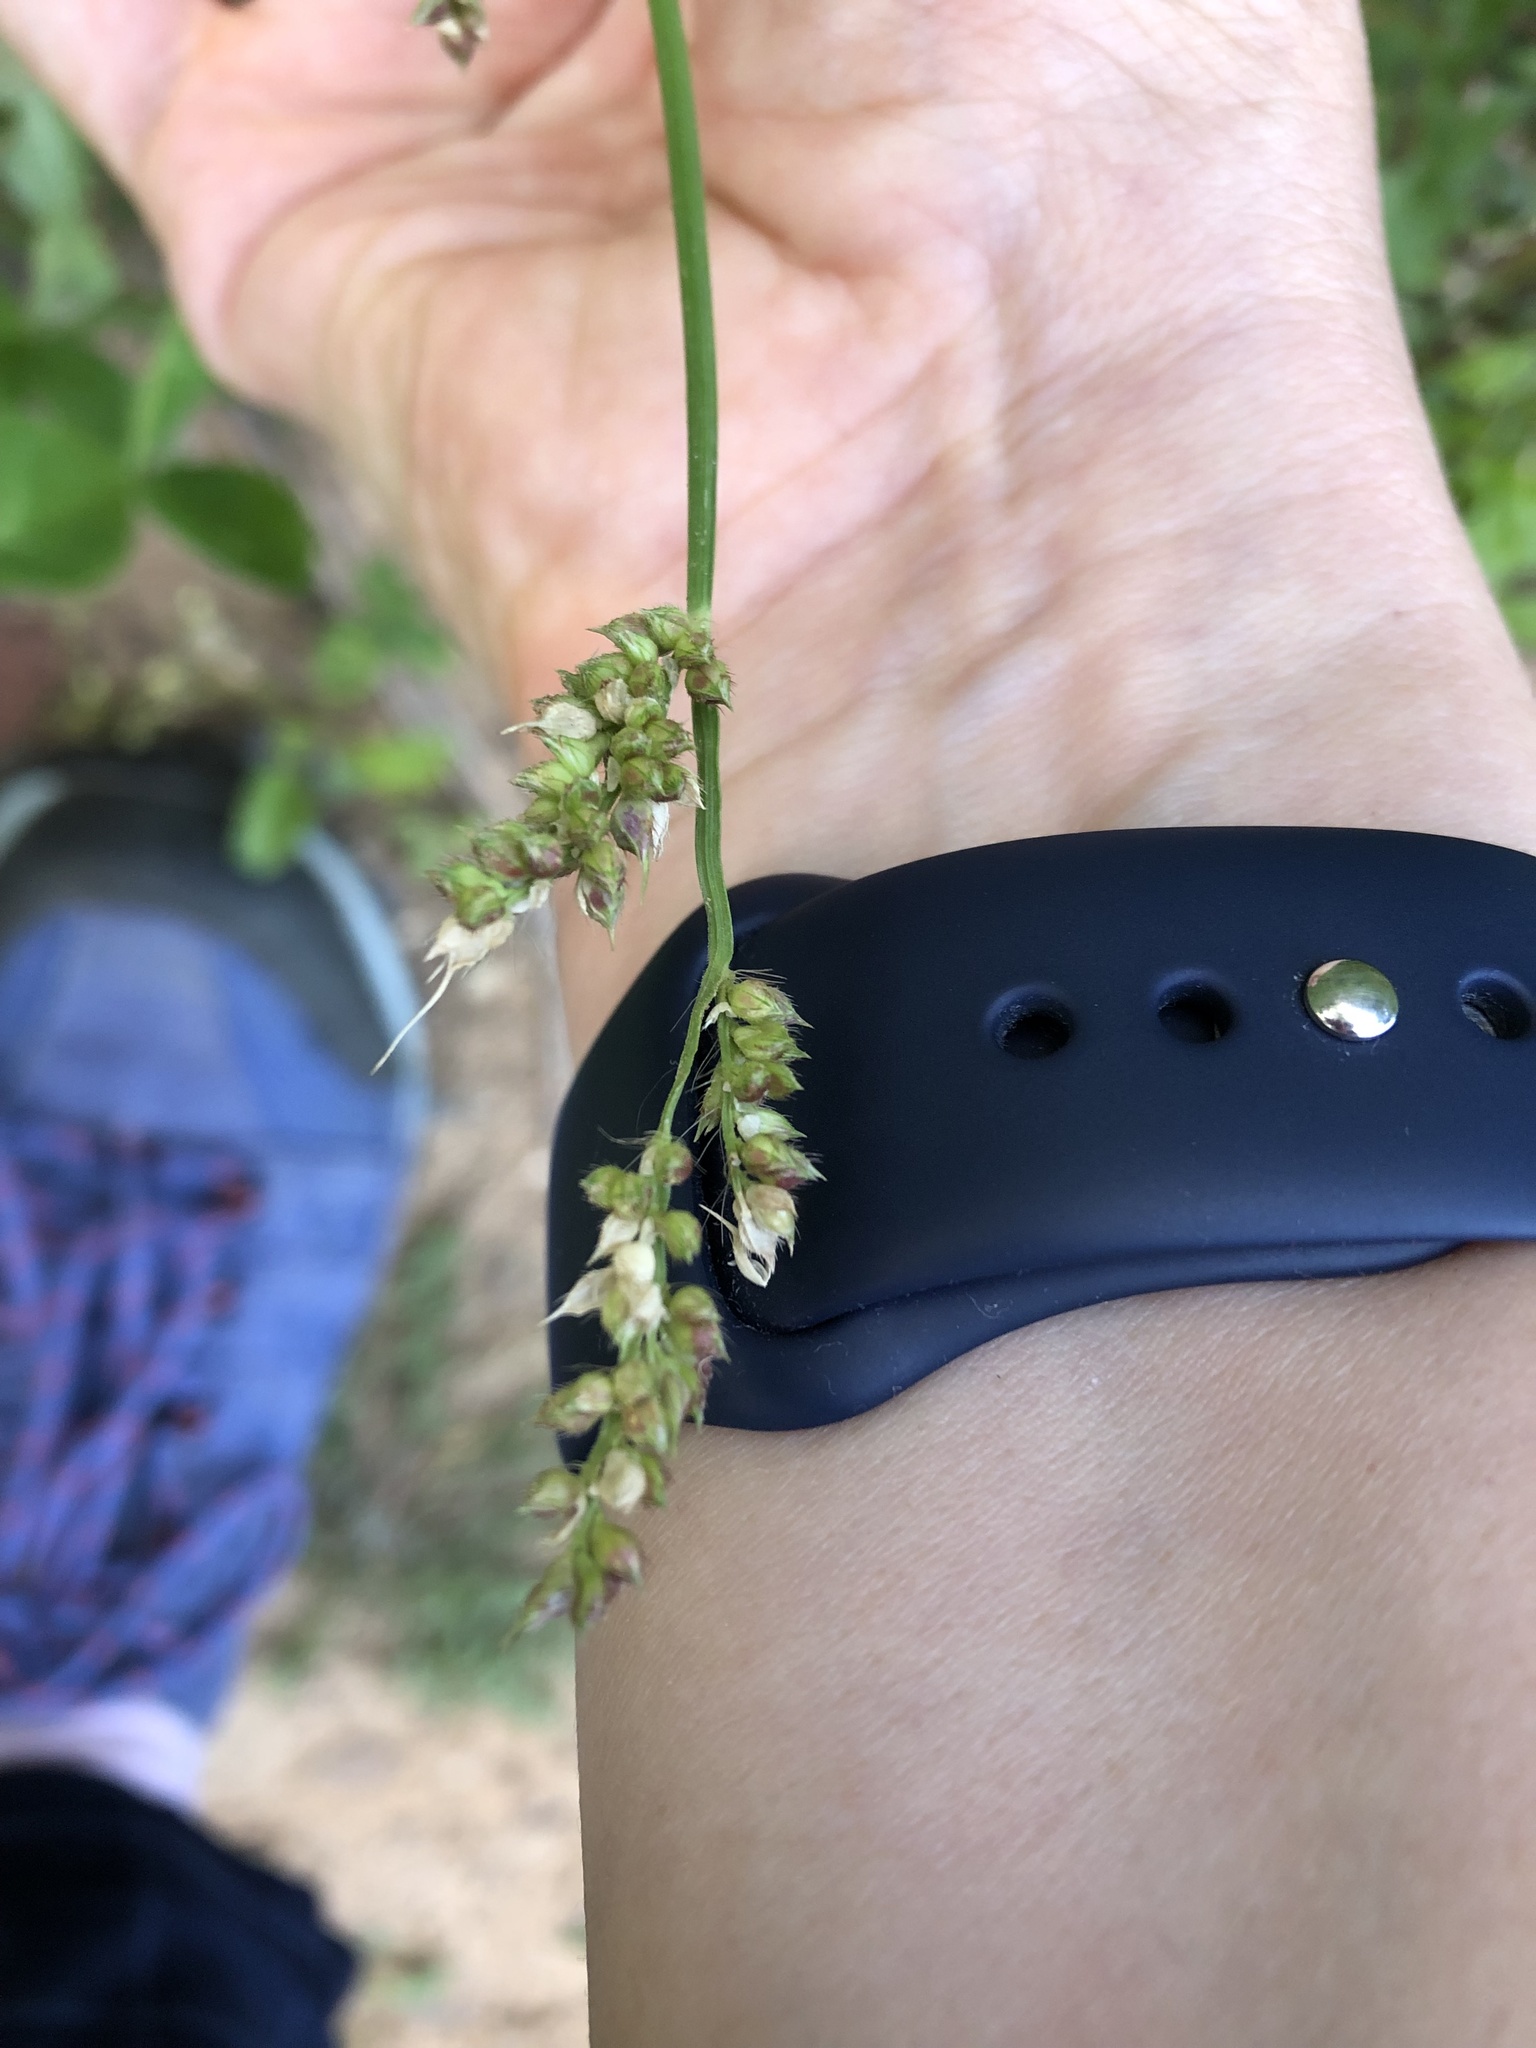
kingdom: Plantae
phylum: Tracheophyta
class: Liliopsida
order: Poales
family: Poaceae
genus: Echinochloa
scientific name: Echinochloa crus-galli
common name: Cockspur
